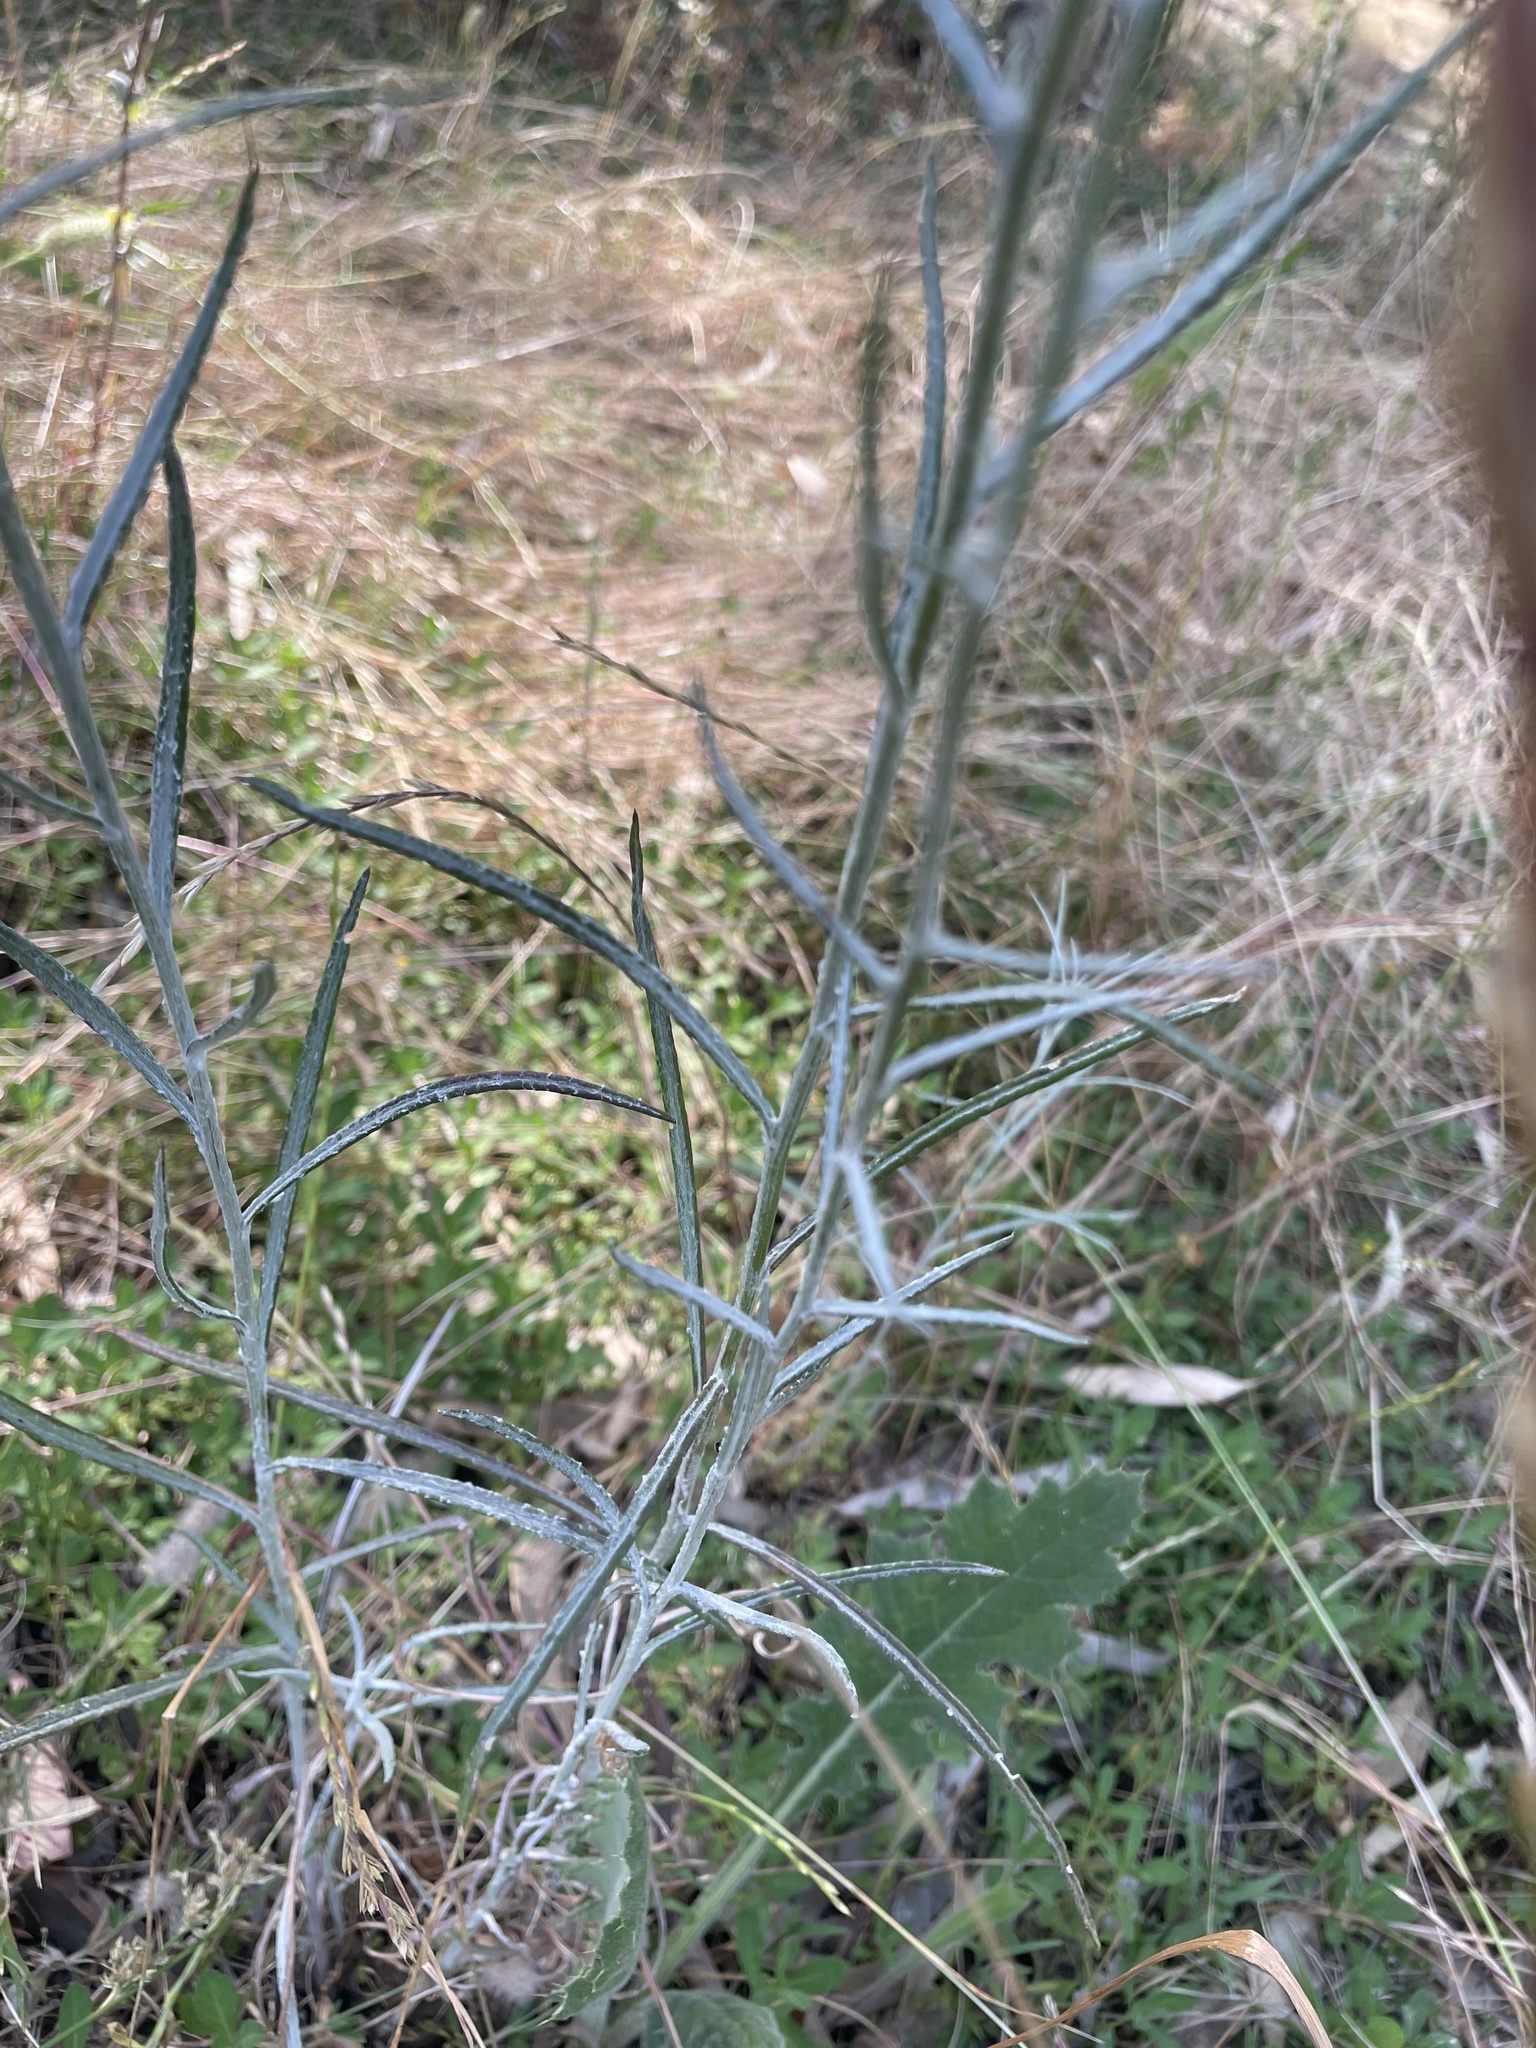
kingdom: Plantae
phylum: Tracheophyta
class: Magnoliopsida
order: Asterales
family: Asteraceae
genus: Senecio
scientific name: Senecio quadridentatus
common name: Cotton fireweed
